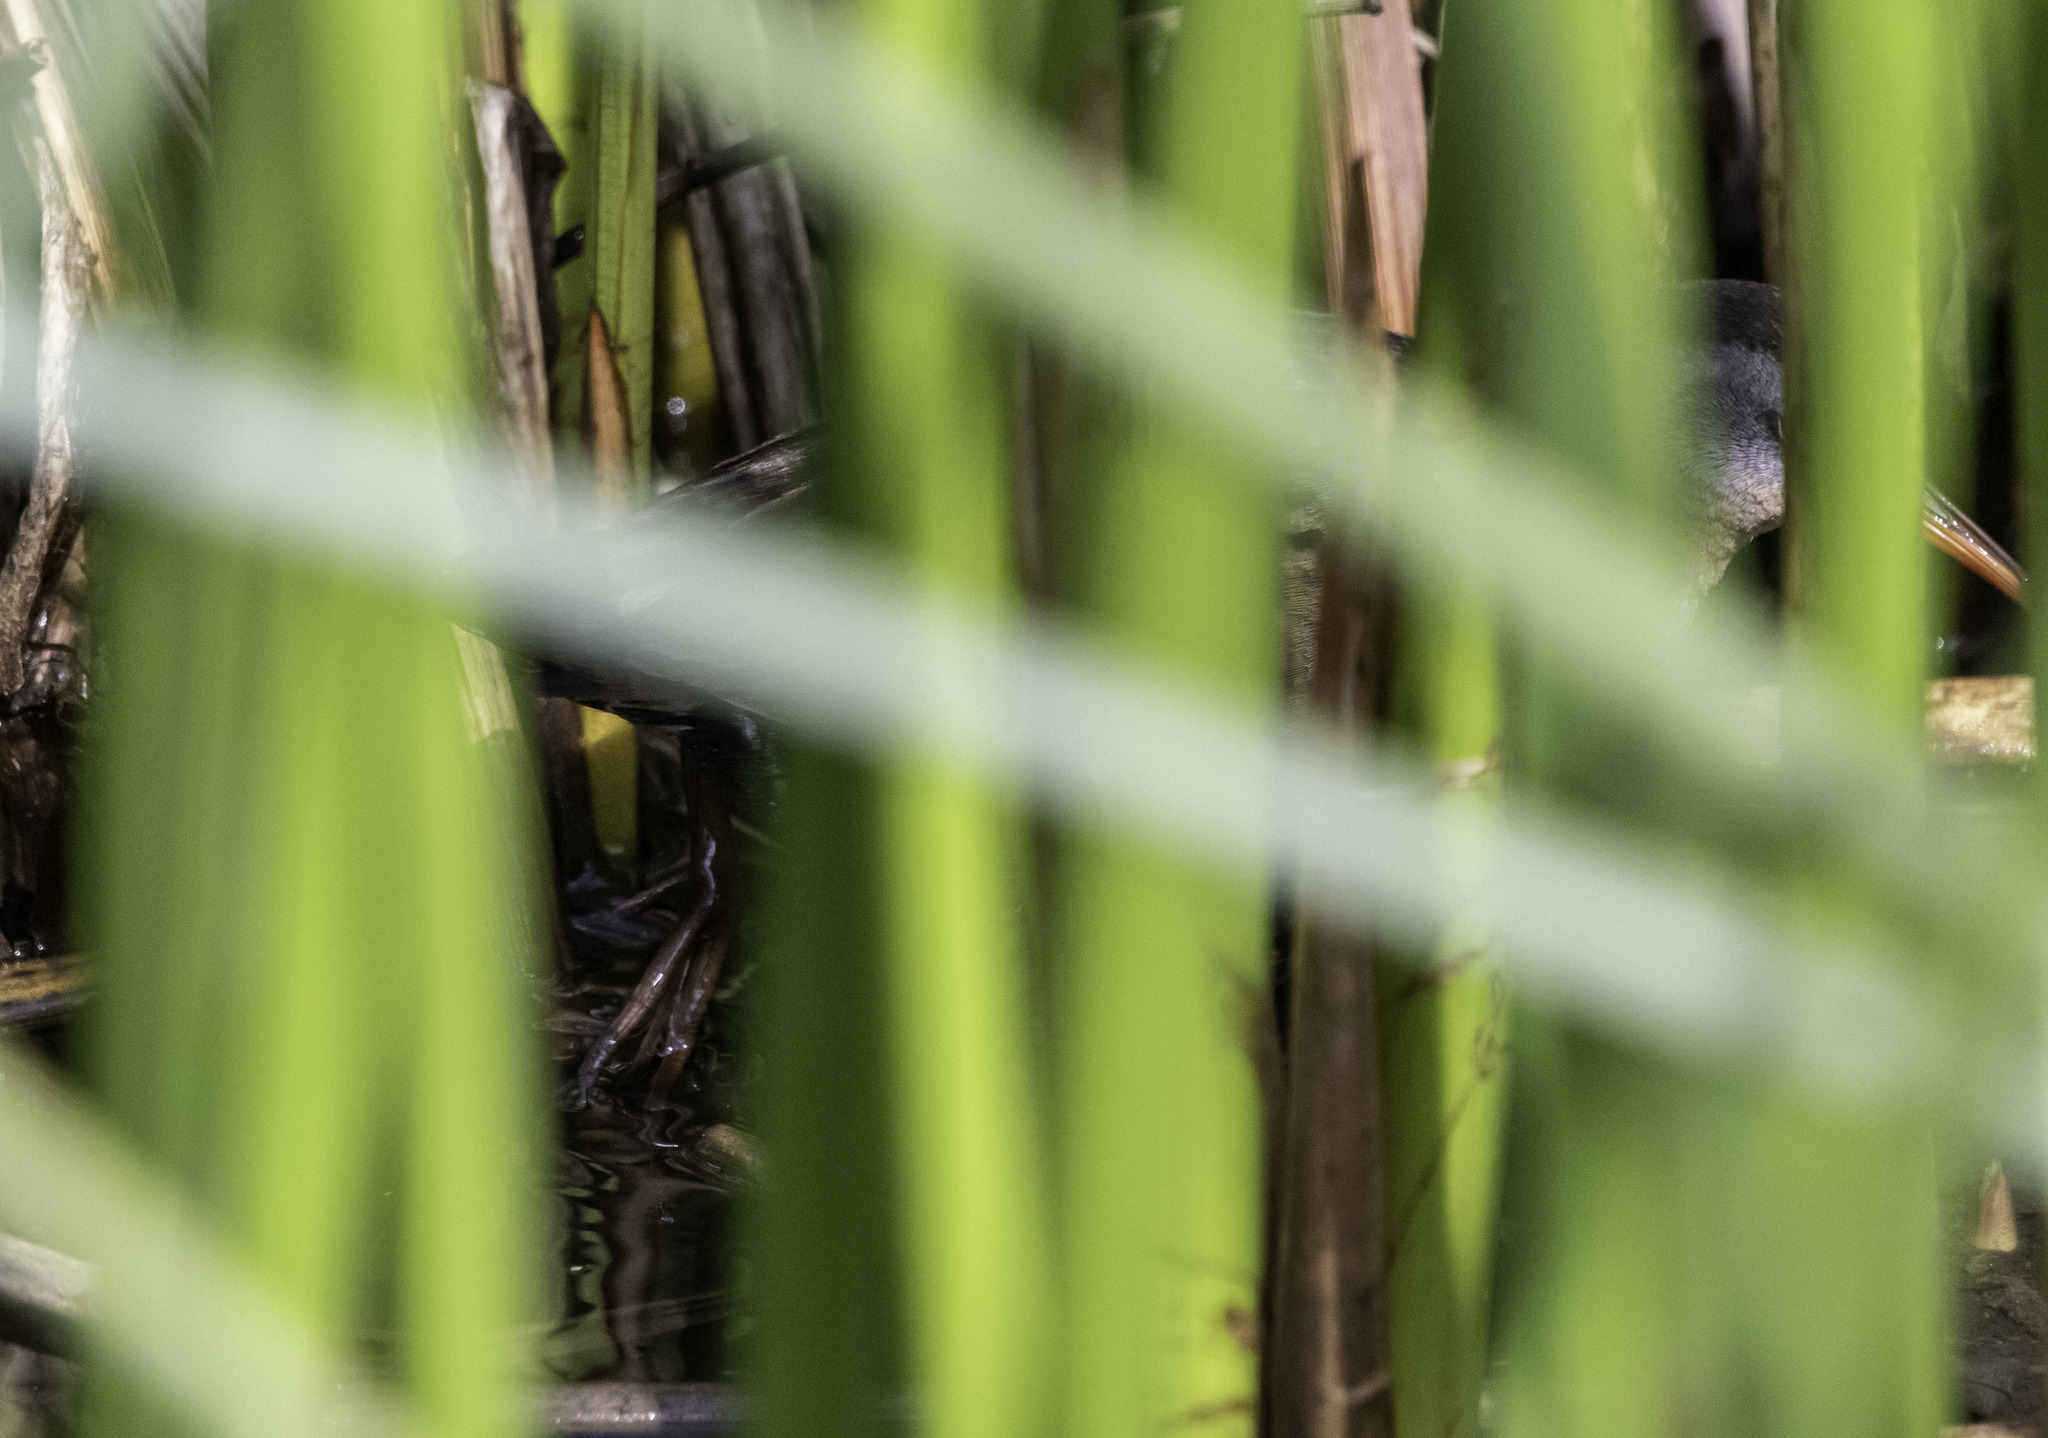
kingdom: Animalia
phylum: Chordata
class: Aves
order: Gruiformes
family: Rallidae
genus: Rallus
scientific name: Rallus limicola
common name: Virginia rail
